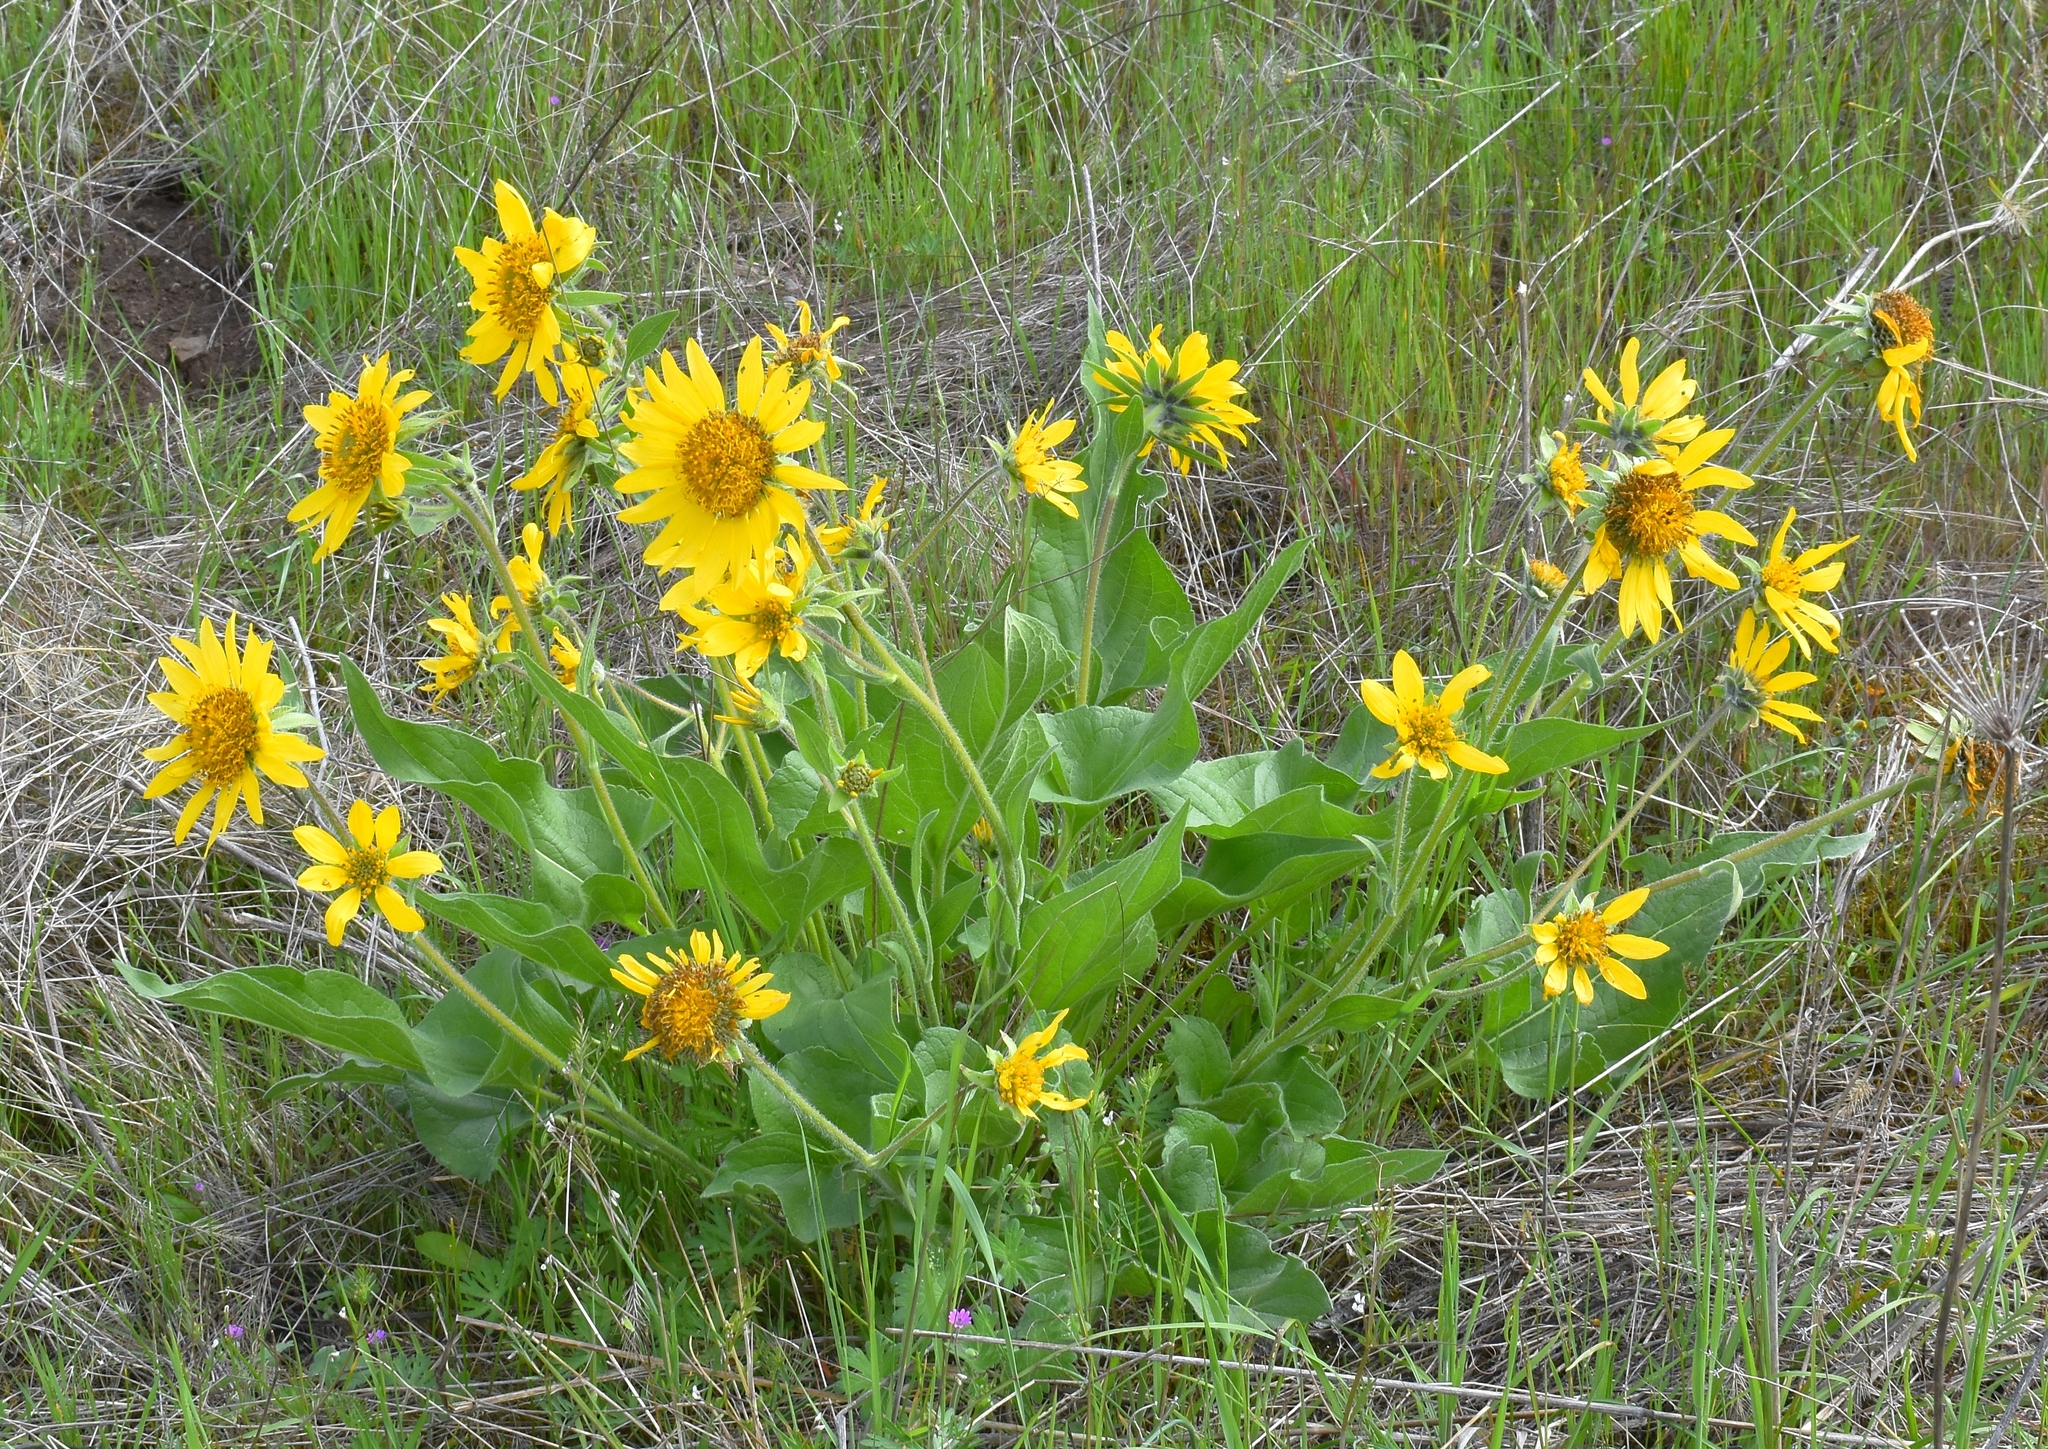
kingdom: Plantae
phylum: Tracheophyta
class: Magnoliopsida
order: Asterales
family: Asteraceae
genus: Balsamorhiza
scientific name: Balsamorhiza deltoidea
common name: Deltoid balsamroot
